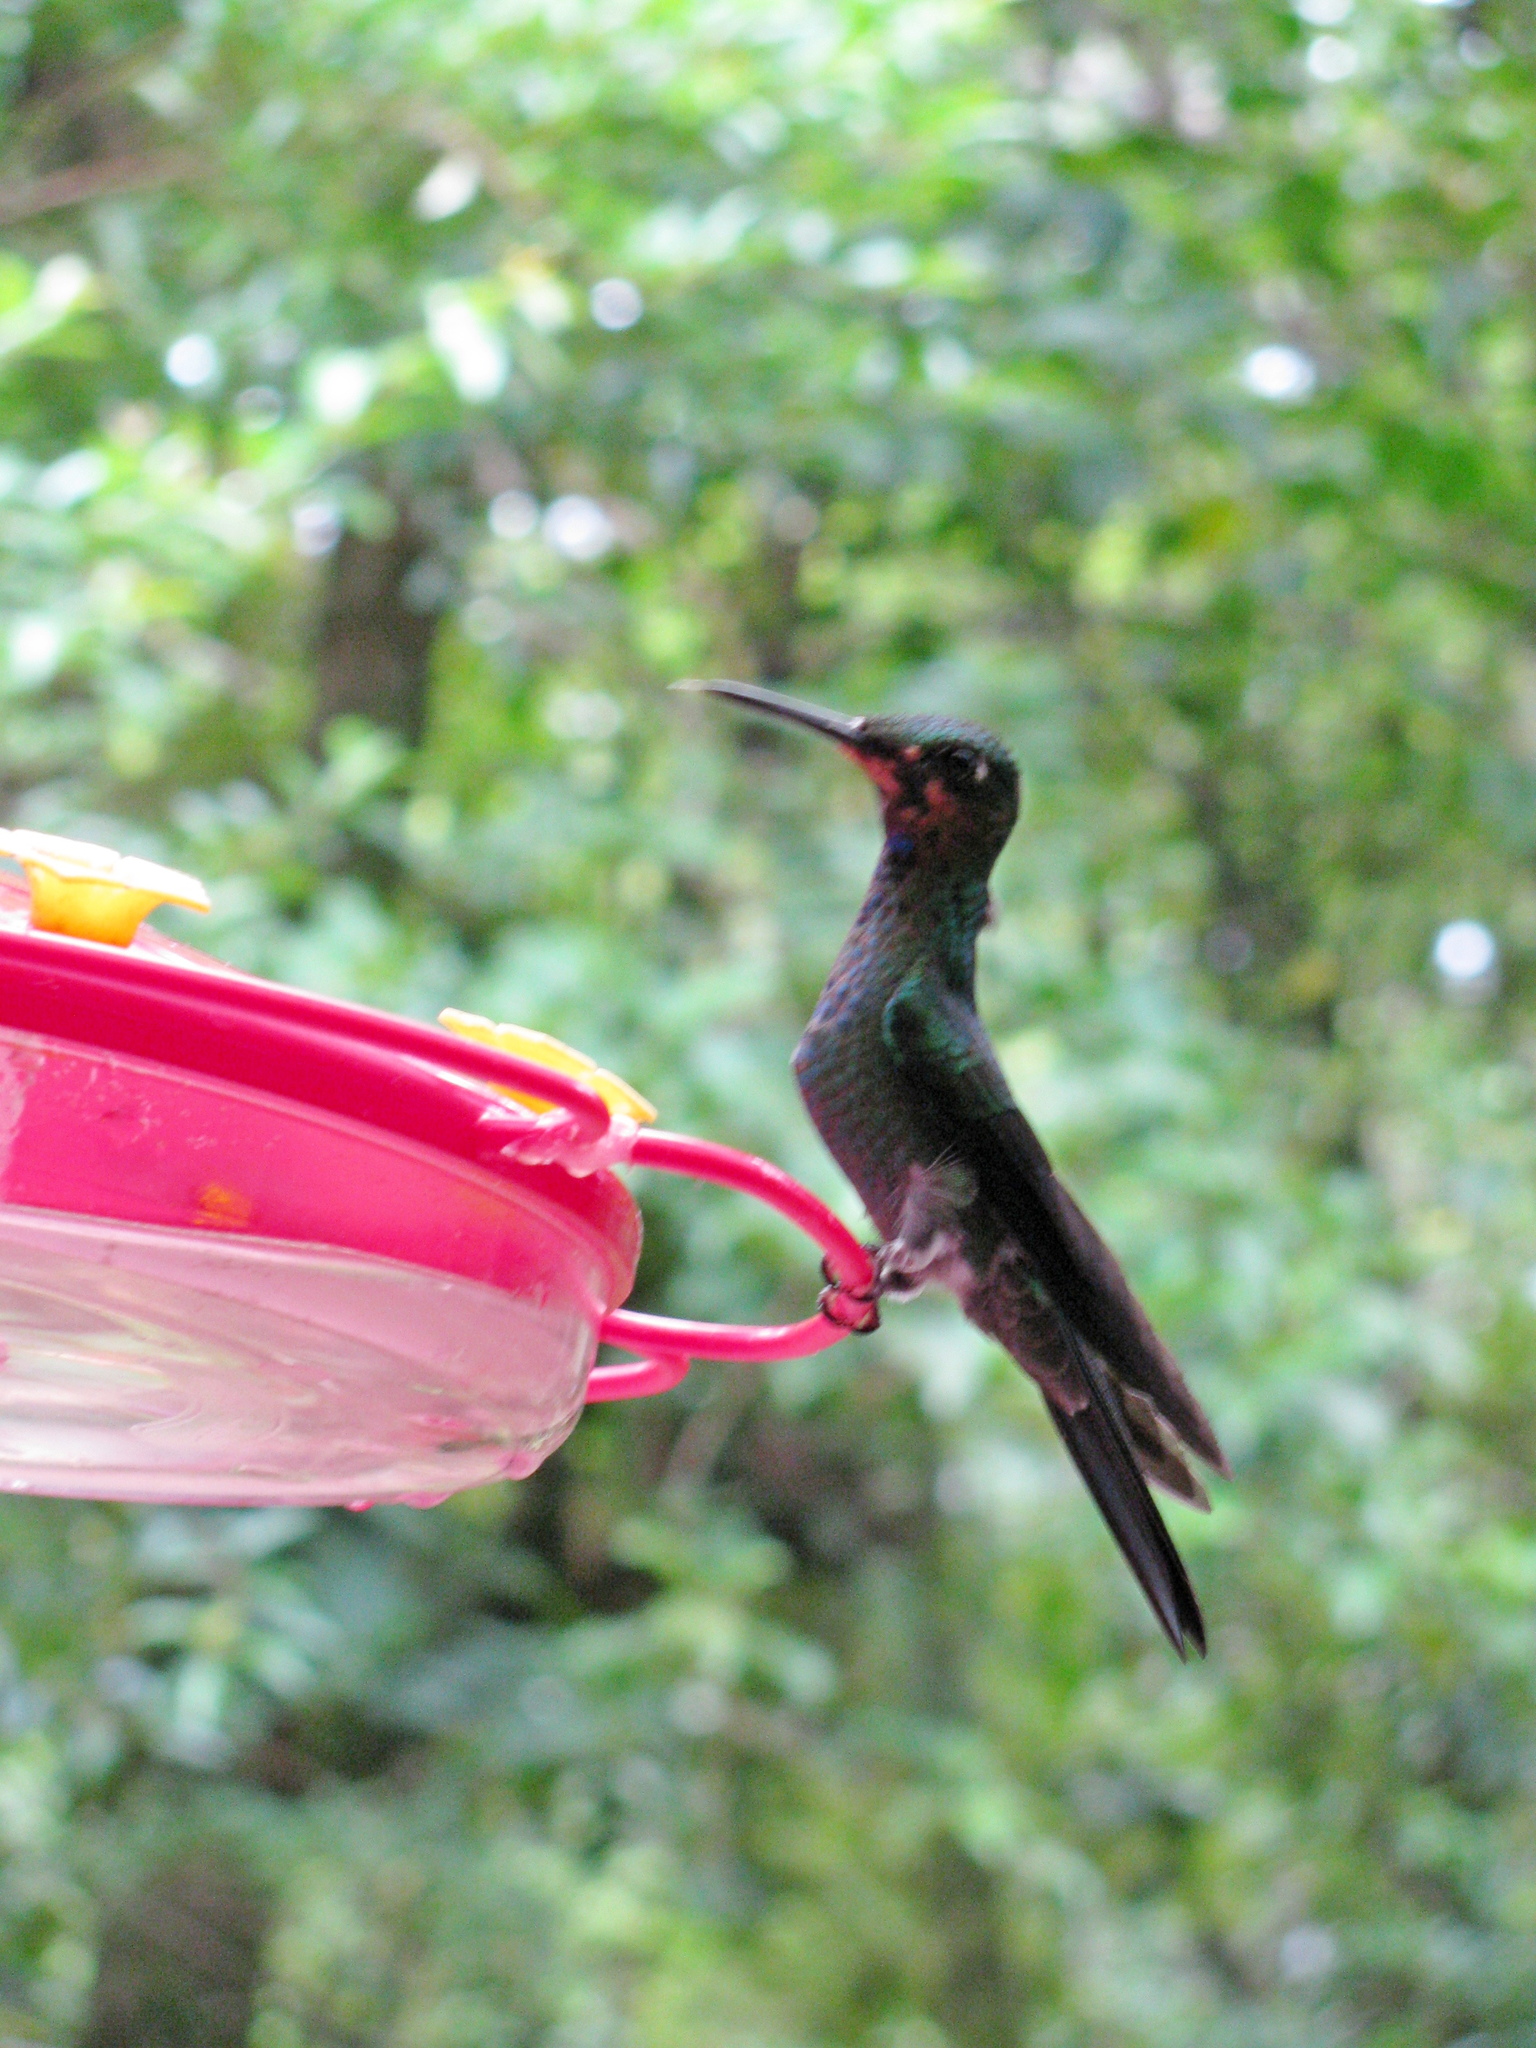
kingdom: Animalia
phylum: Chordata
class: Aves
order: Apodiformes
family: Trochilidae
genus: Heliodoxa
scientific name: Heliodoxa jacula
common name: Green-crowned brilliant
